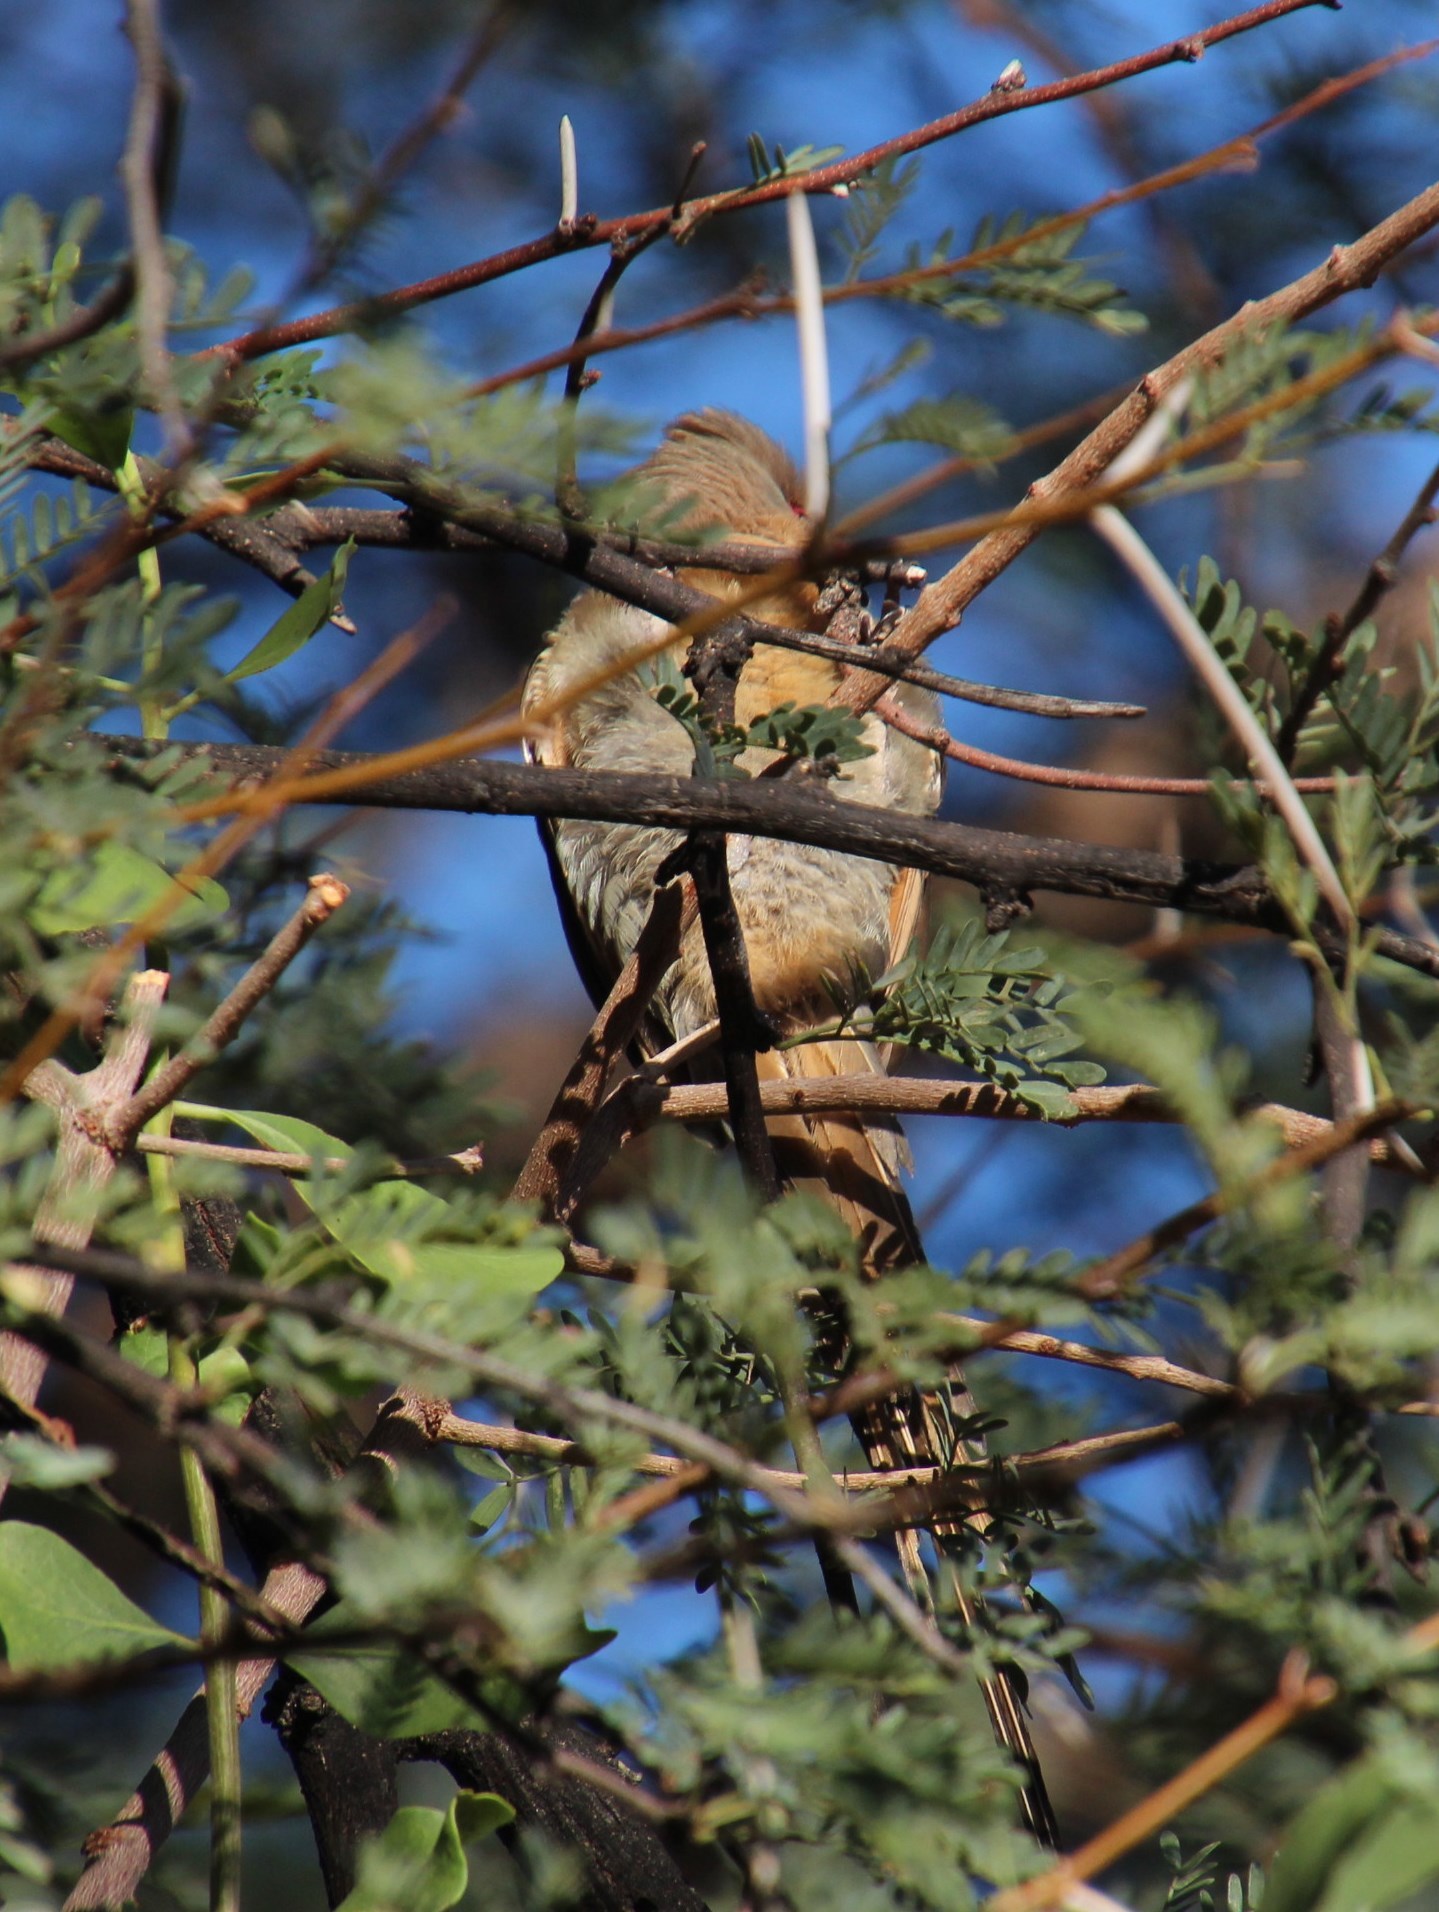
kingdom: Animalia
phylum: Chordata
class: Aves
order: Coliiformes
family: Coliidae
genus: Urocolius
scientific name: Urocolius indicus
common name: Red-faced mousebird
